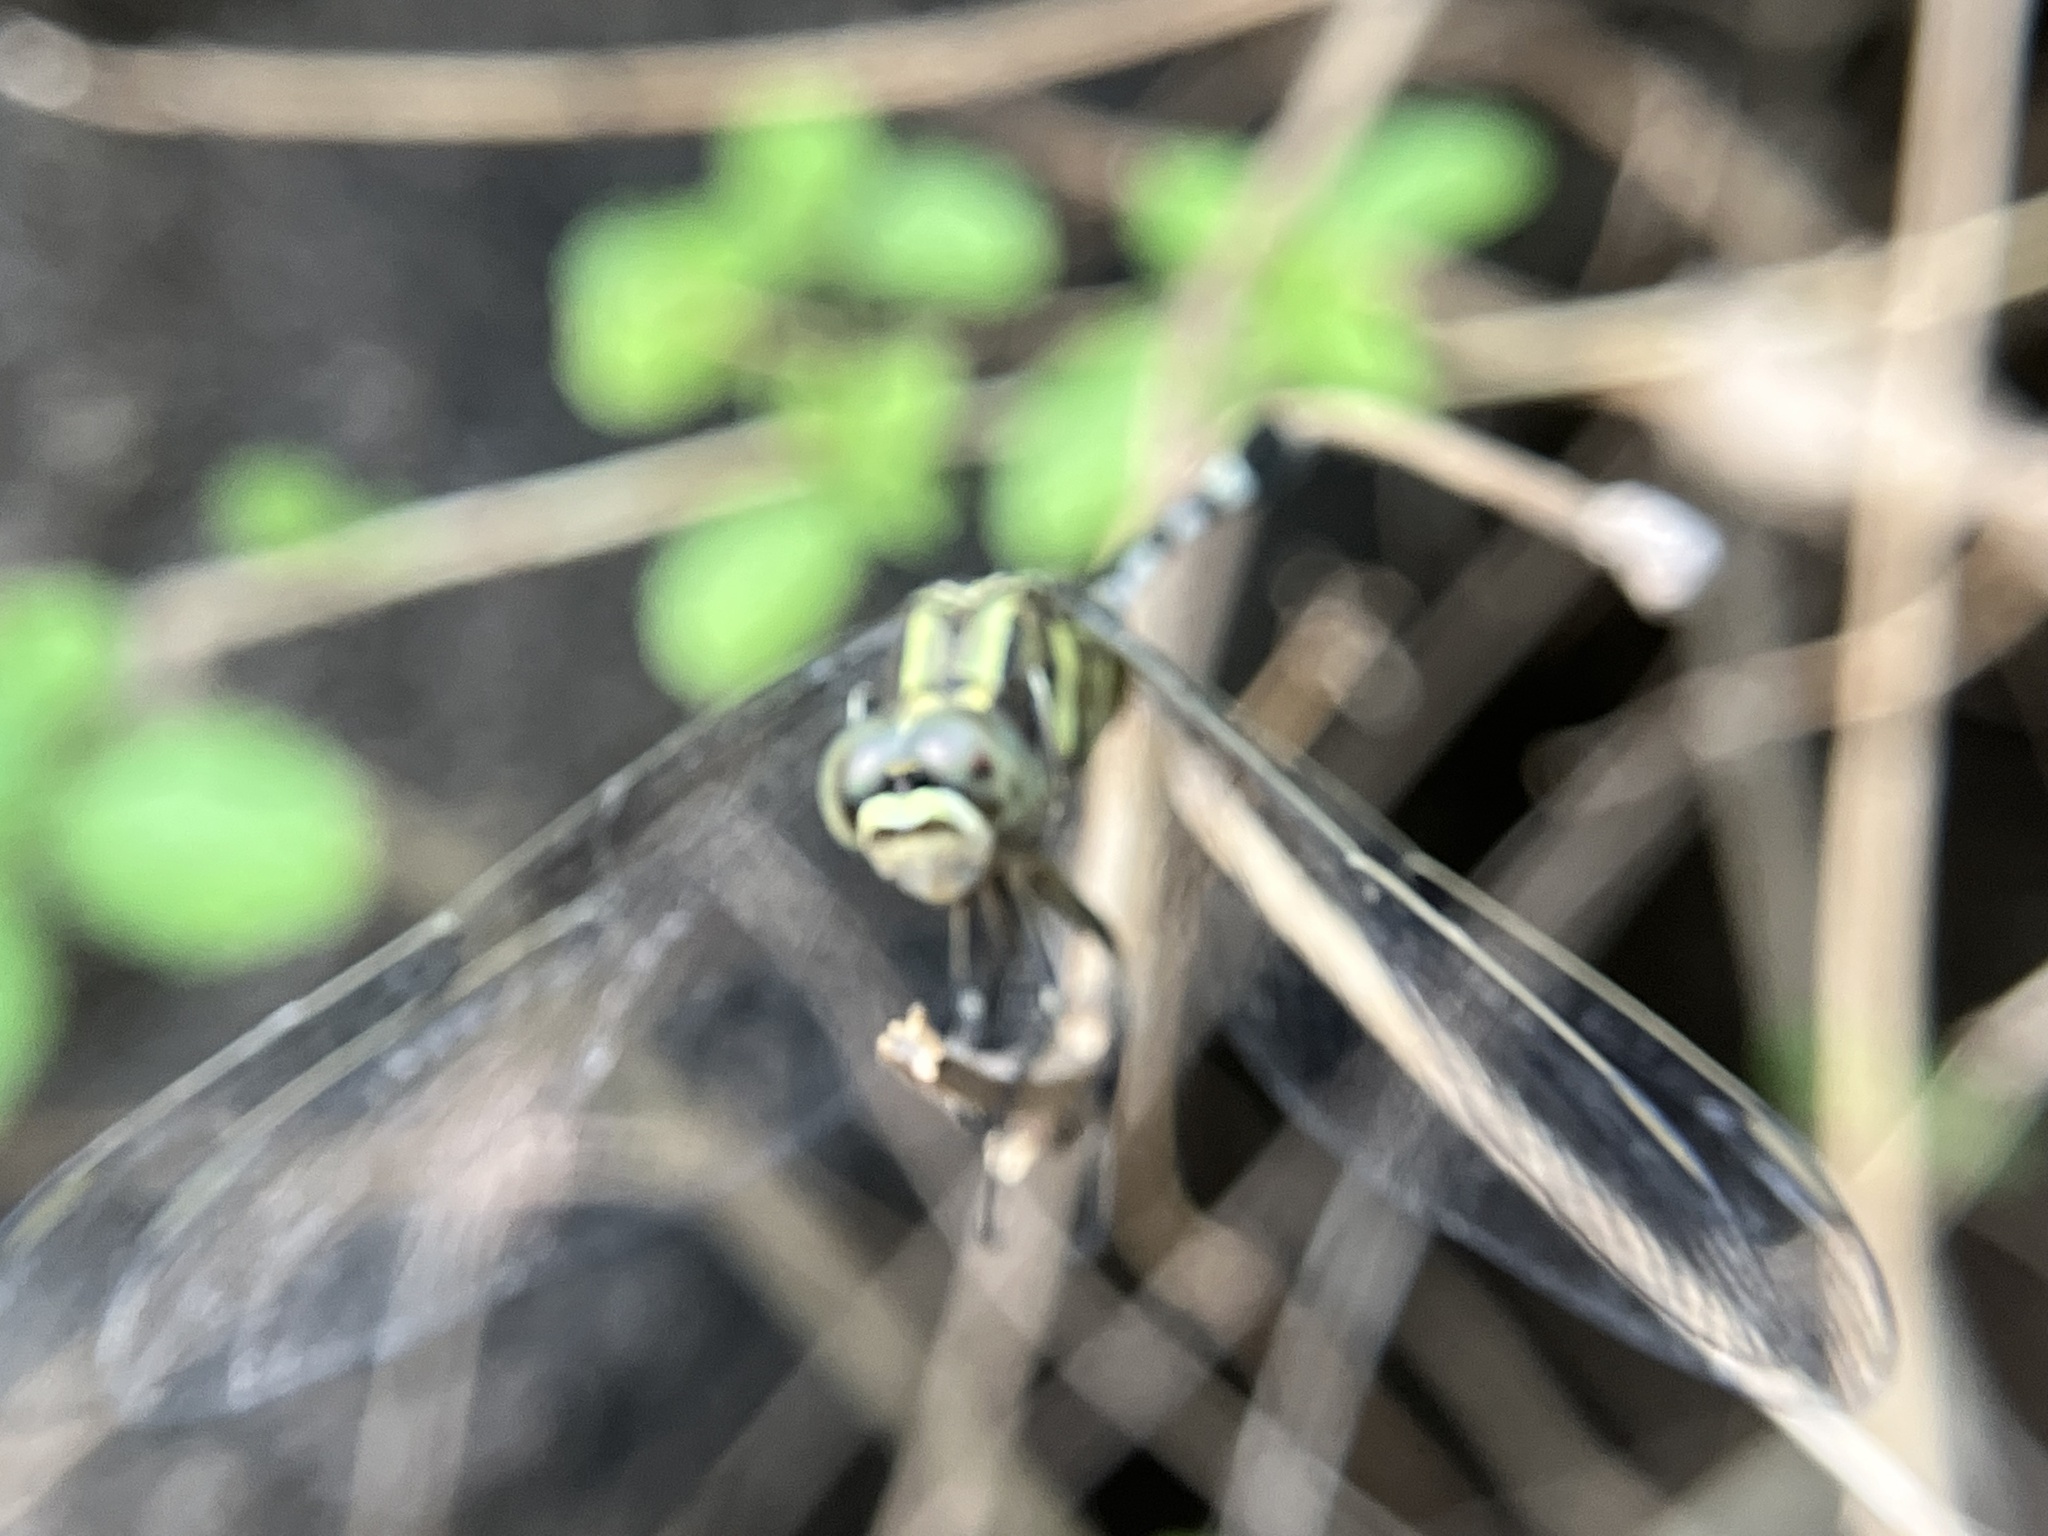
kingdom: Animalia
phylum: Arthropoda
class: Insecta
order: Odonata
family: Libellulidae
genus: Orthetrum
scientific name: Orthetrum sabina
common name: Slender skimmer
